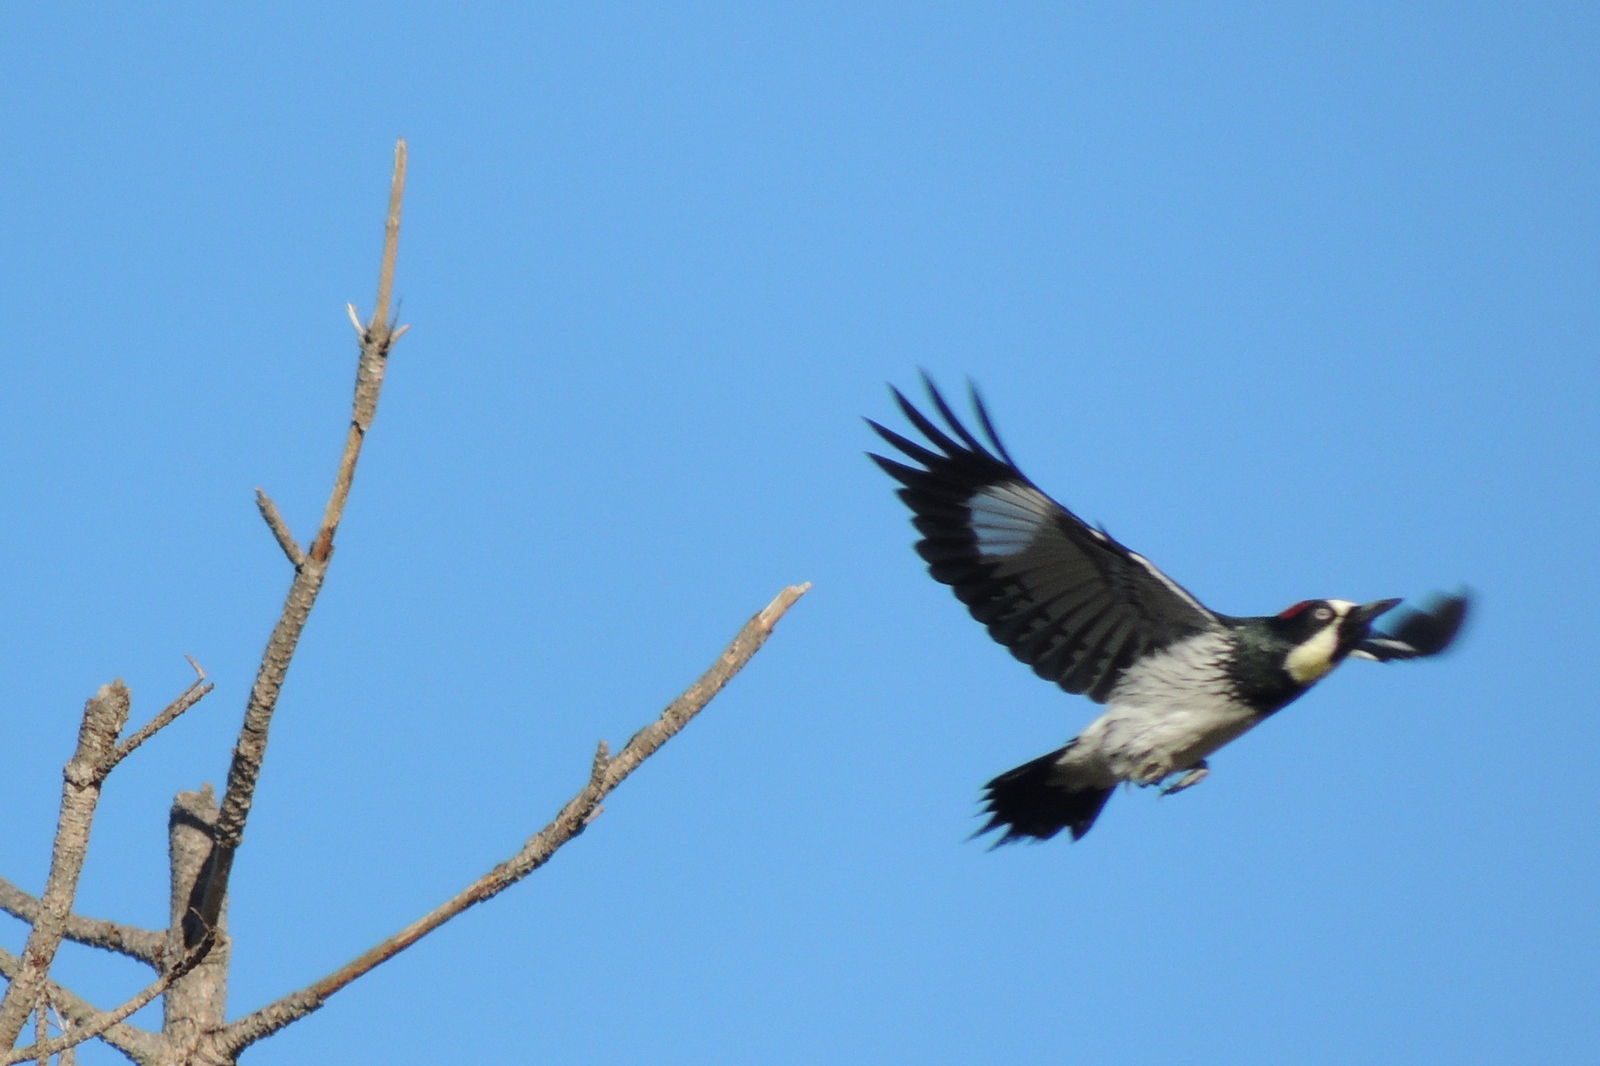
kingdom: Animalia
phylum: Chordata
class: Aves
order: Piciformes
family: Picidae
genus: Melanerpes
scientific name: Melanerpes formicivorus
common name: Acorn woodpecker
